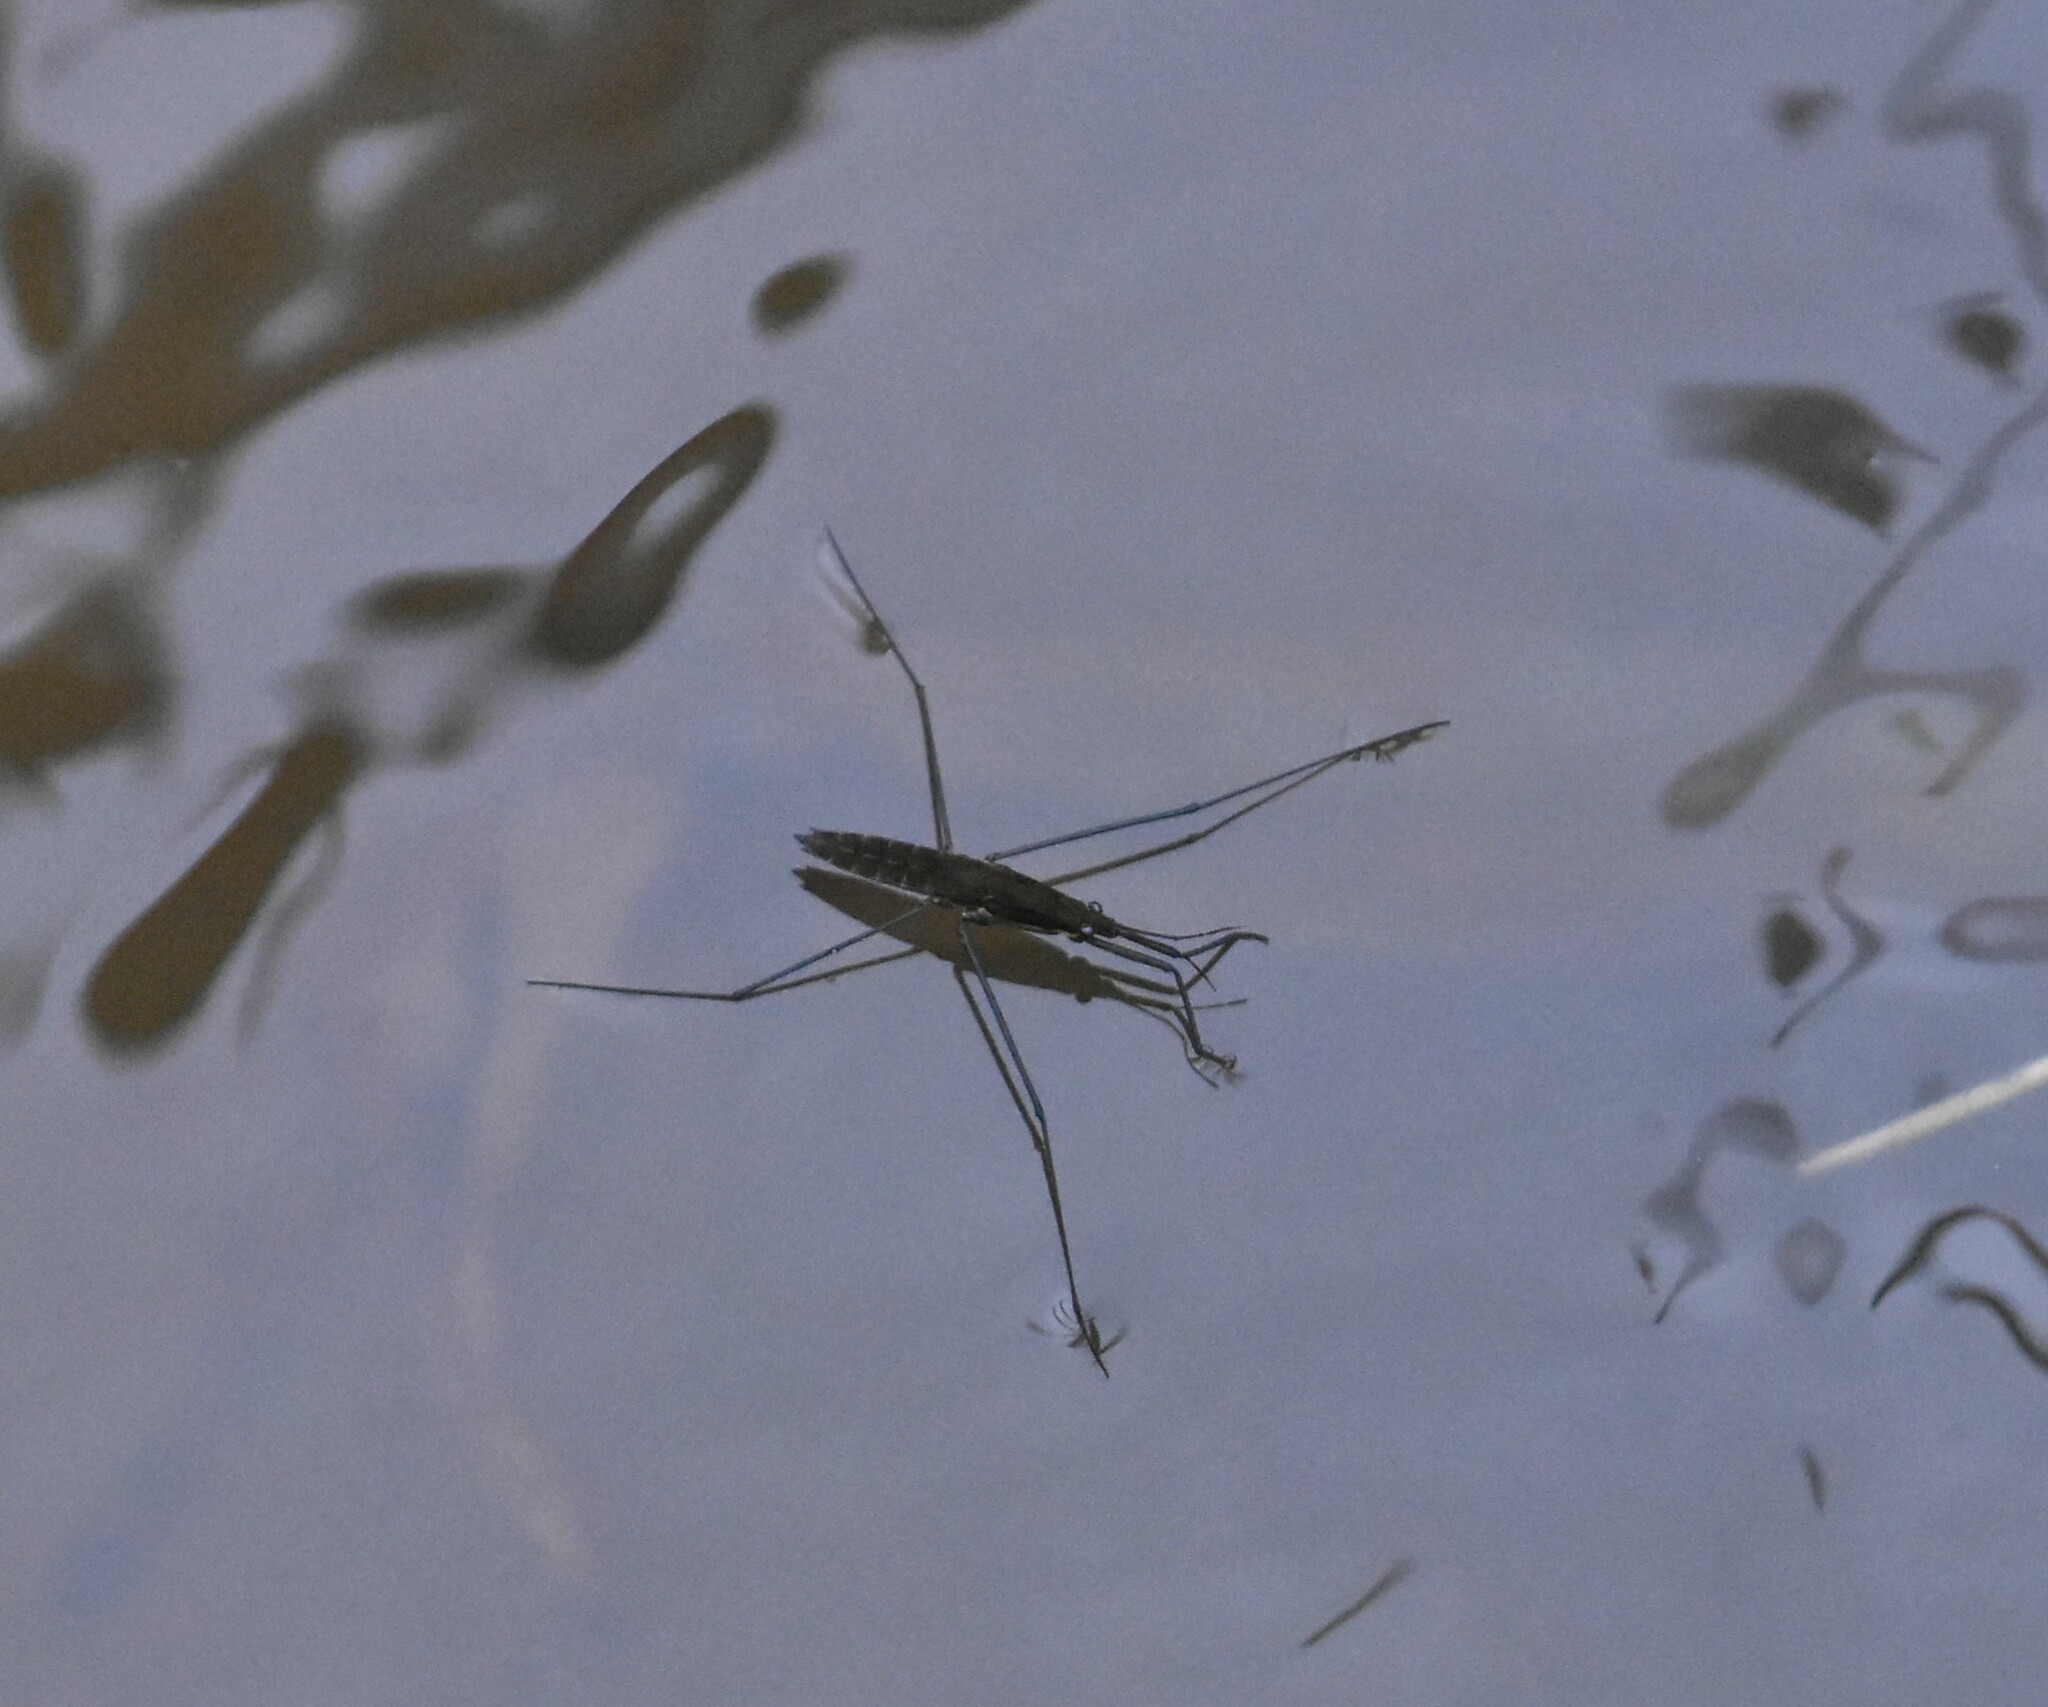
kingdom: Animalia
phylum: Arthropoda
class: Insecta
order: Hemiptera
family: Gerridae
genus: Aquarius
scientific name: Aquarius najas
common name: River skater
